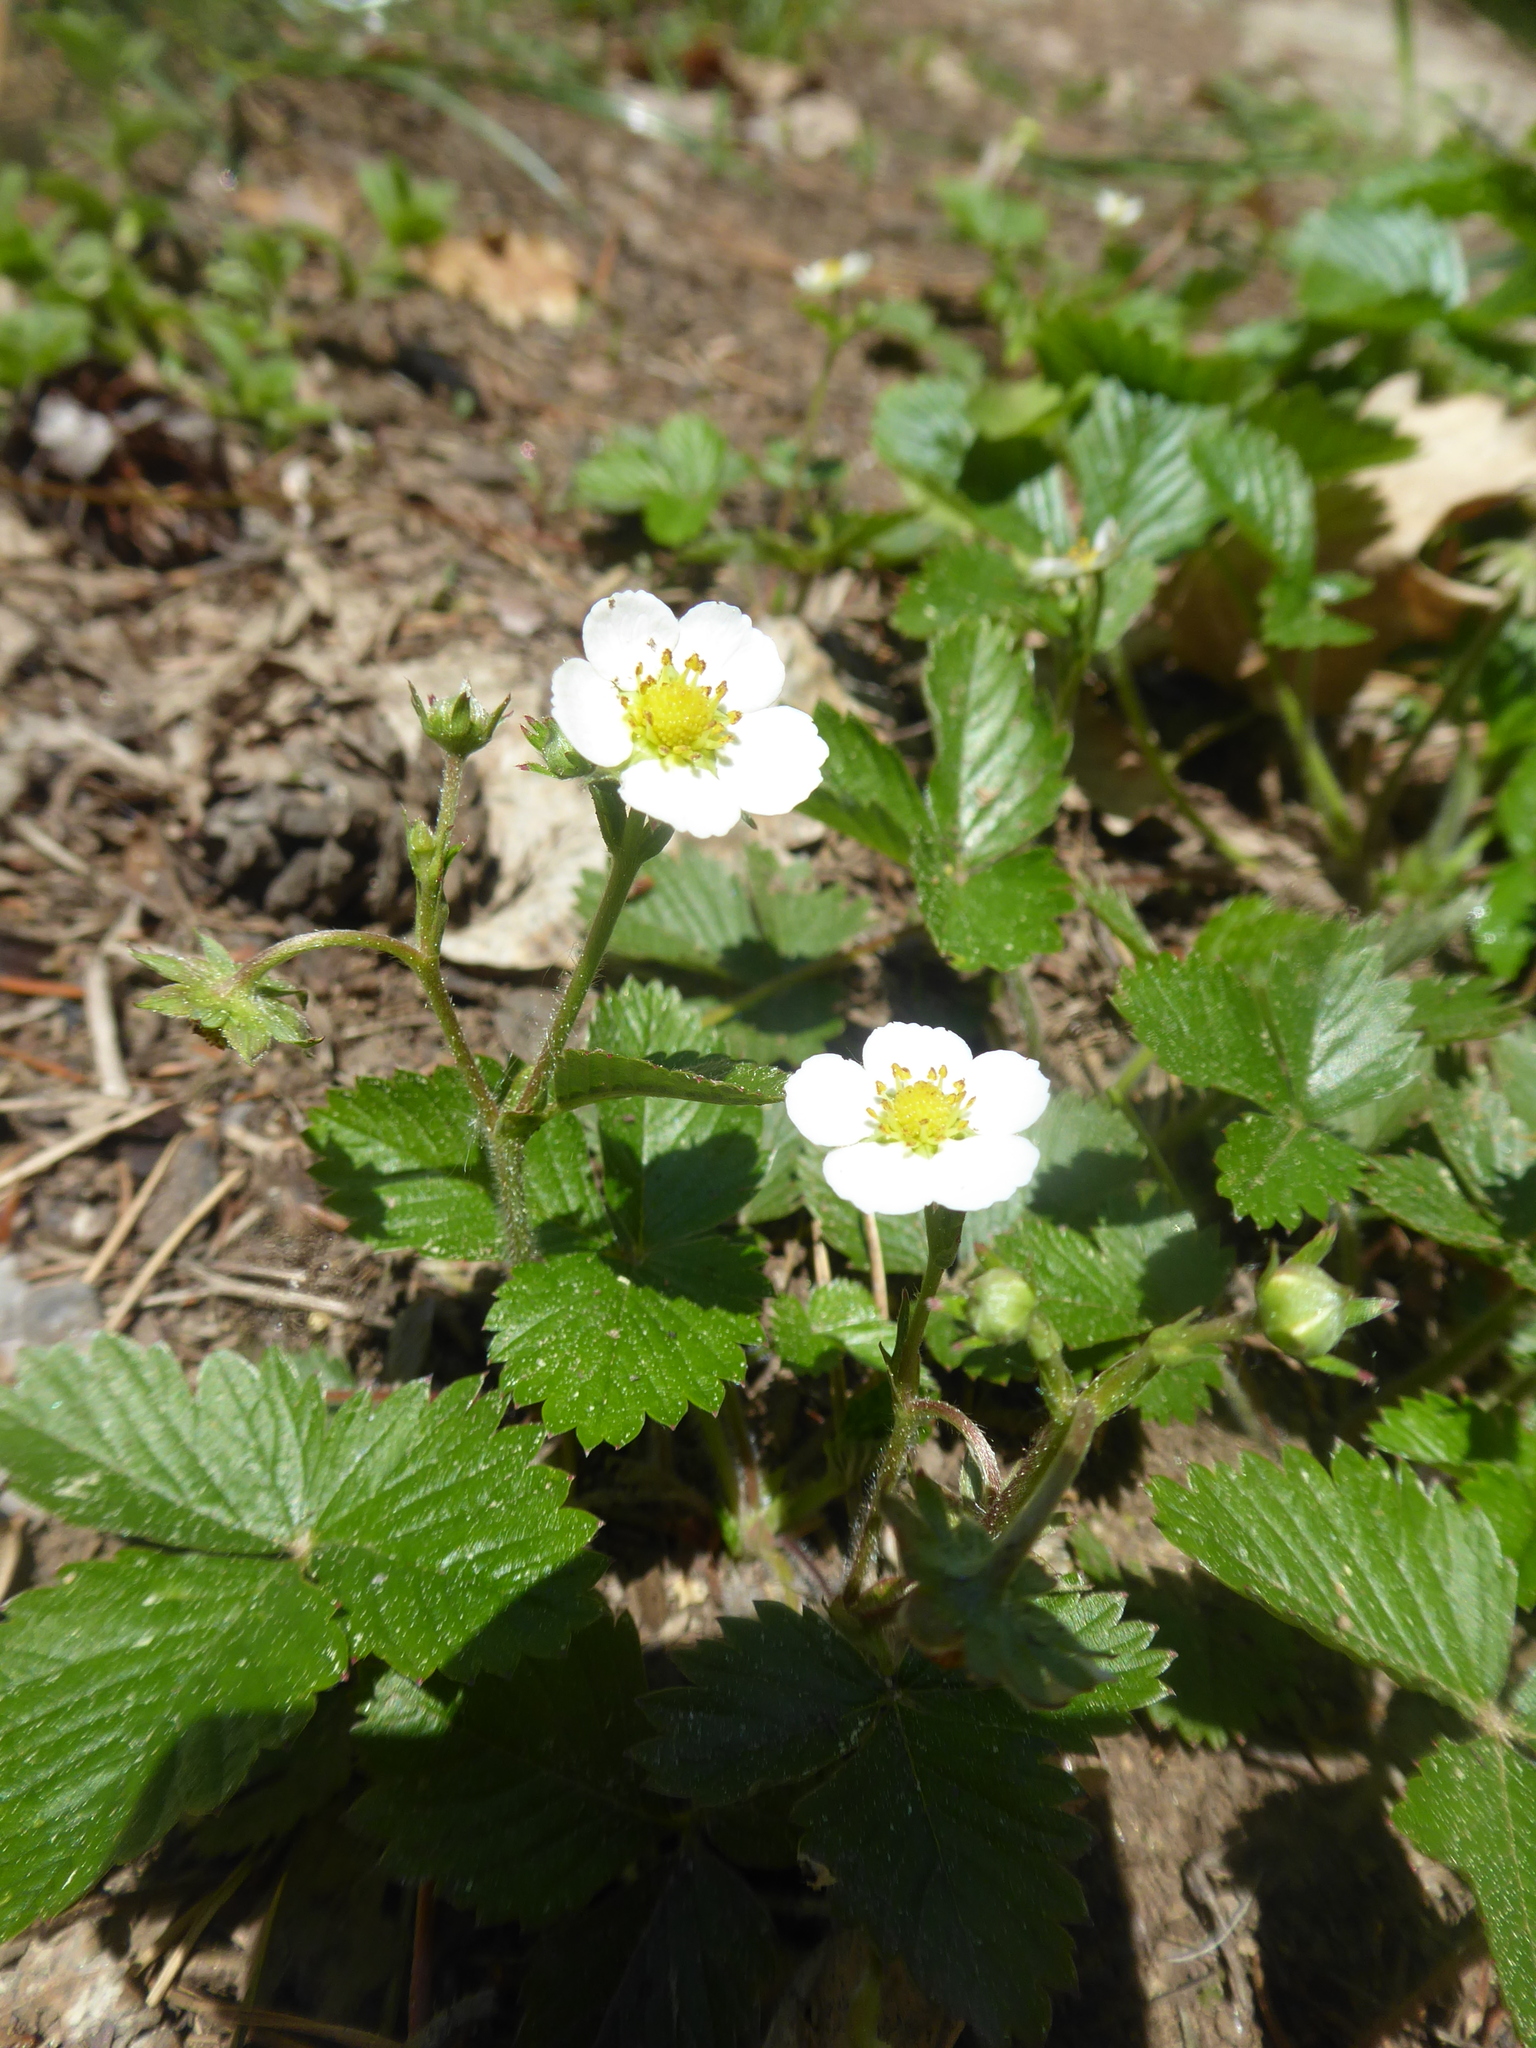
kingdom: Plantae
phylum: Tracheophyta
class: Magnoliopsida
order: Rosales
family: Rosaceae
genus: Fragaria
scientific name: Fragaria vesca
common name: Wild strawberry
